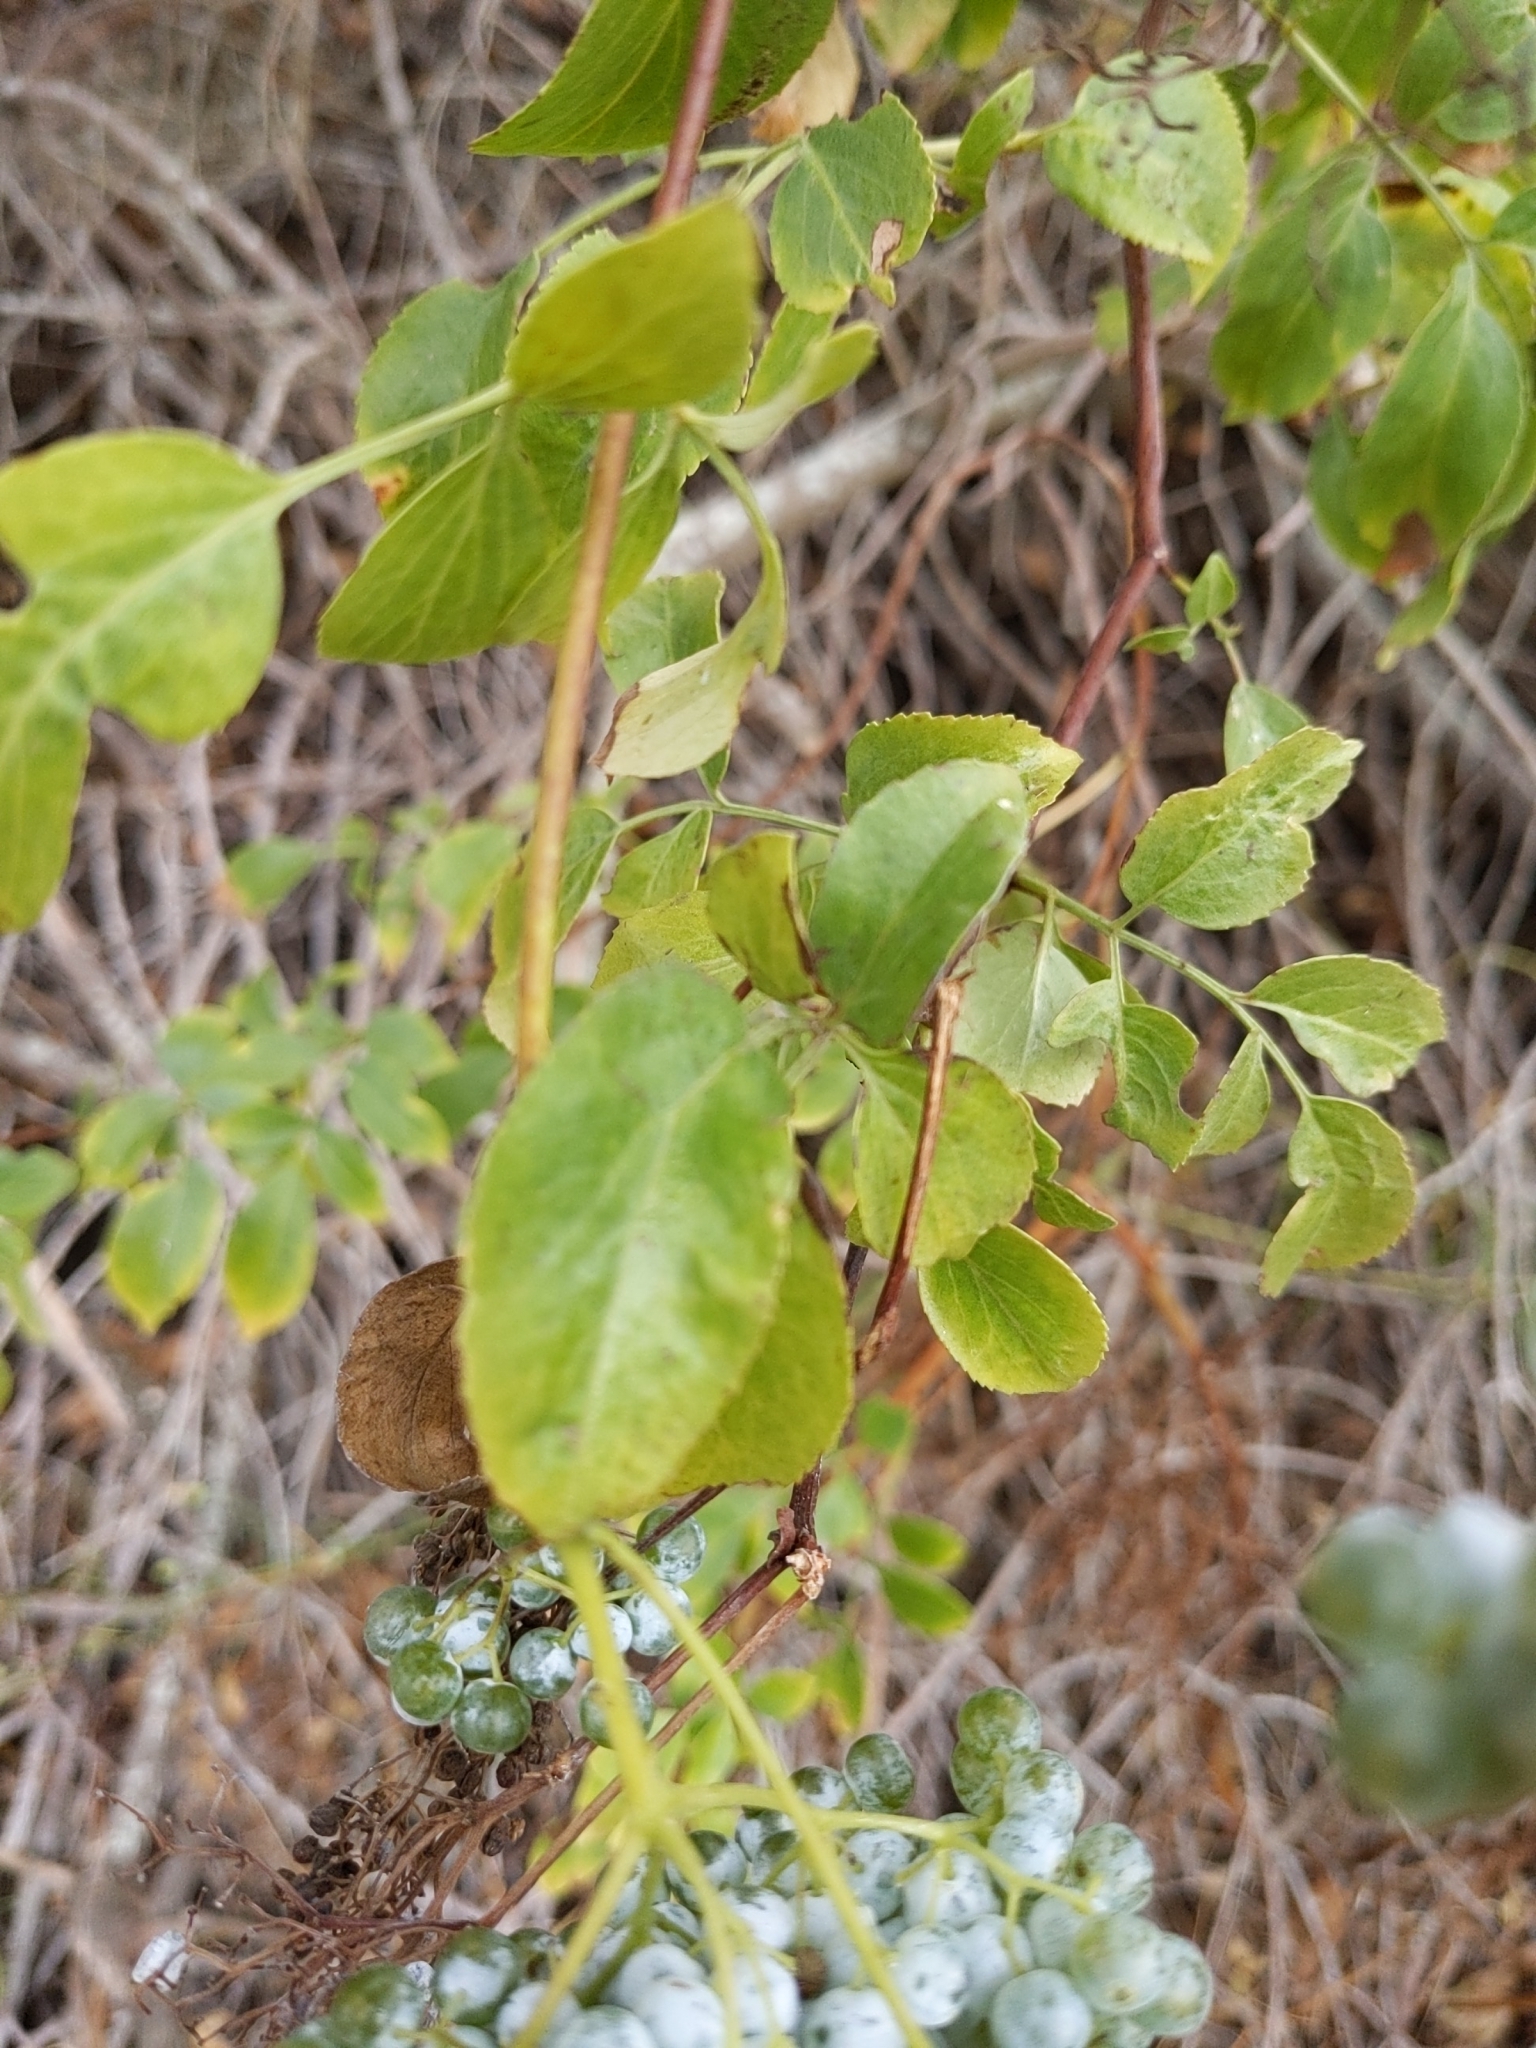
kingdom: Plantae
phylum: Tracheophyta
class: Magnoliopsida
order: Dipsacales
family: Viburnaceae
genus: Sambucus
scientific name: Sambucus cerulea
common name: Blue elder
